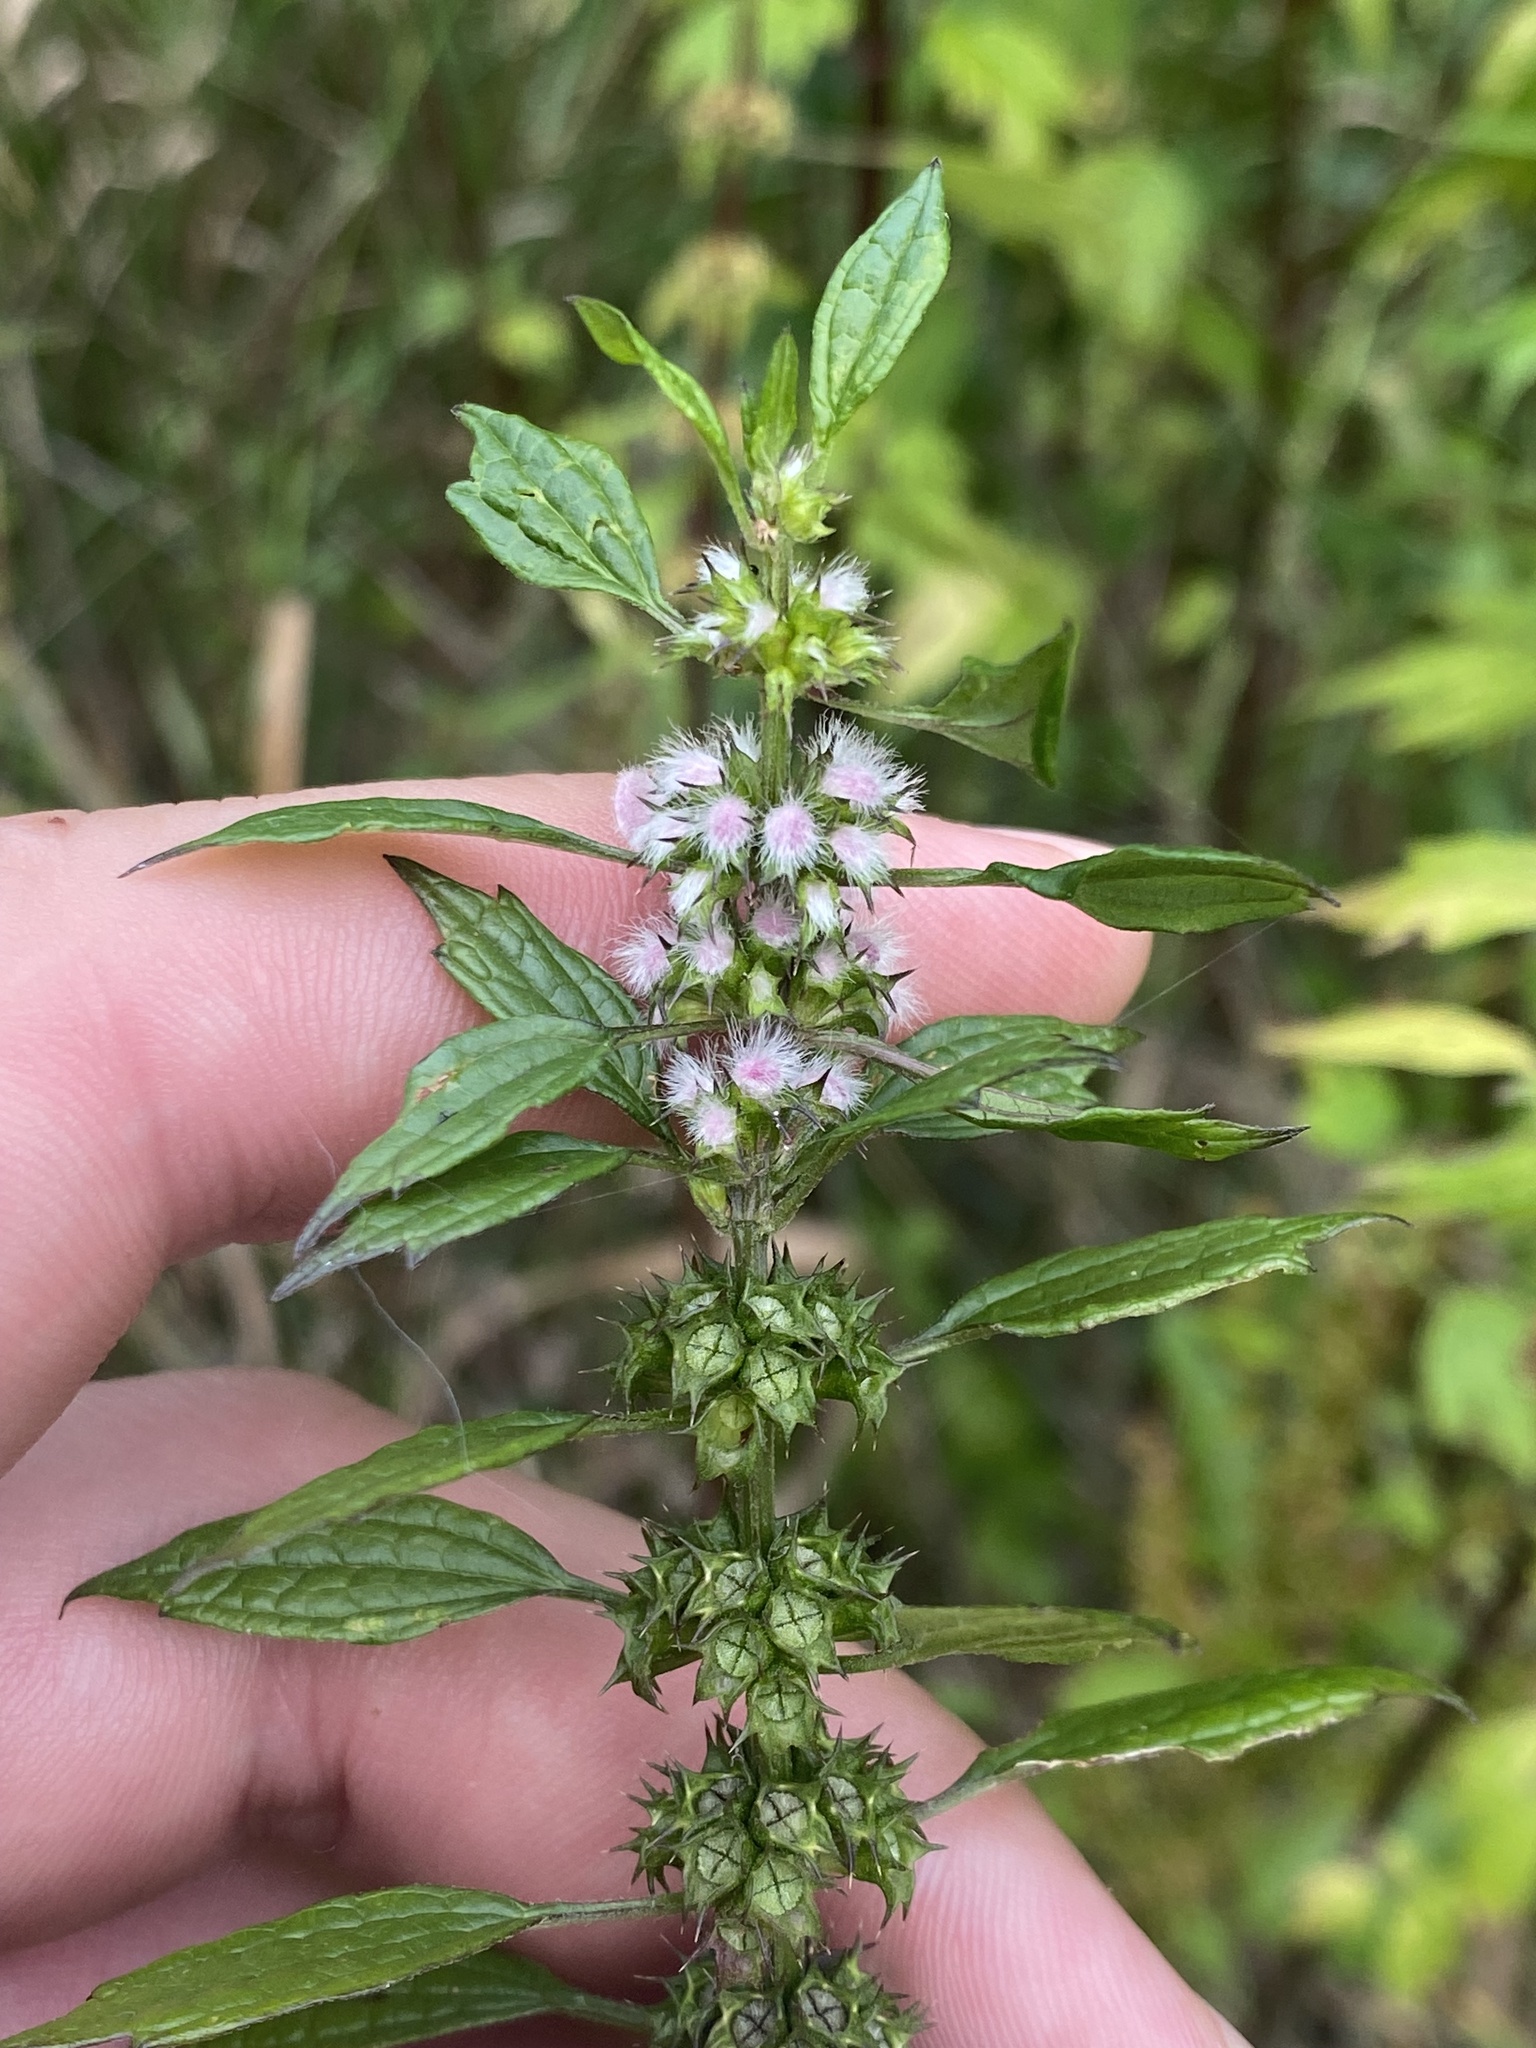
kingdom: Plantae
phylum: Tracheophyta
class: Magnoliopsida
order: Lamiales
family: Lamiaceae
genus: Leonurus
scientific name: Leonurus cardiaca
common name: Motherwort
